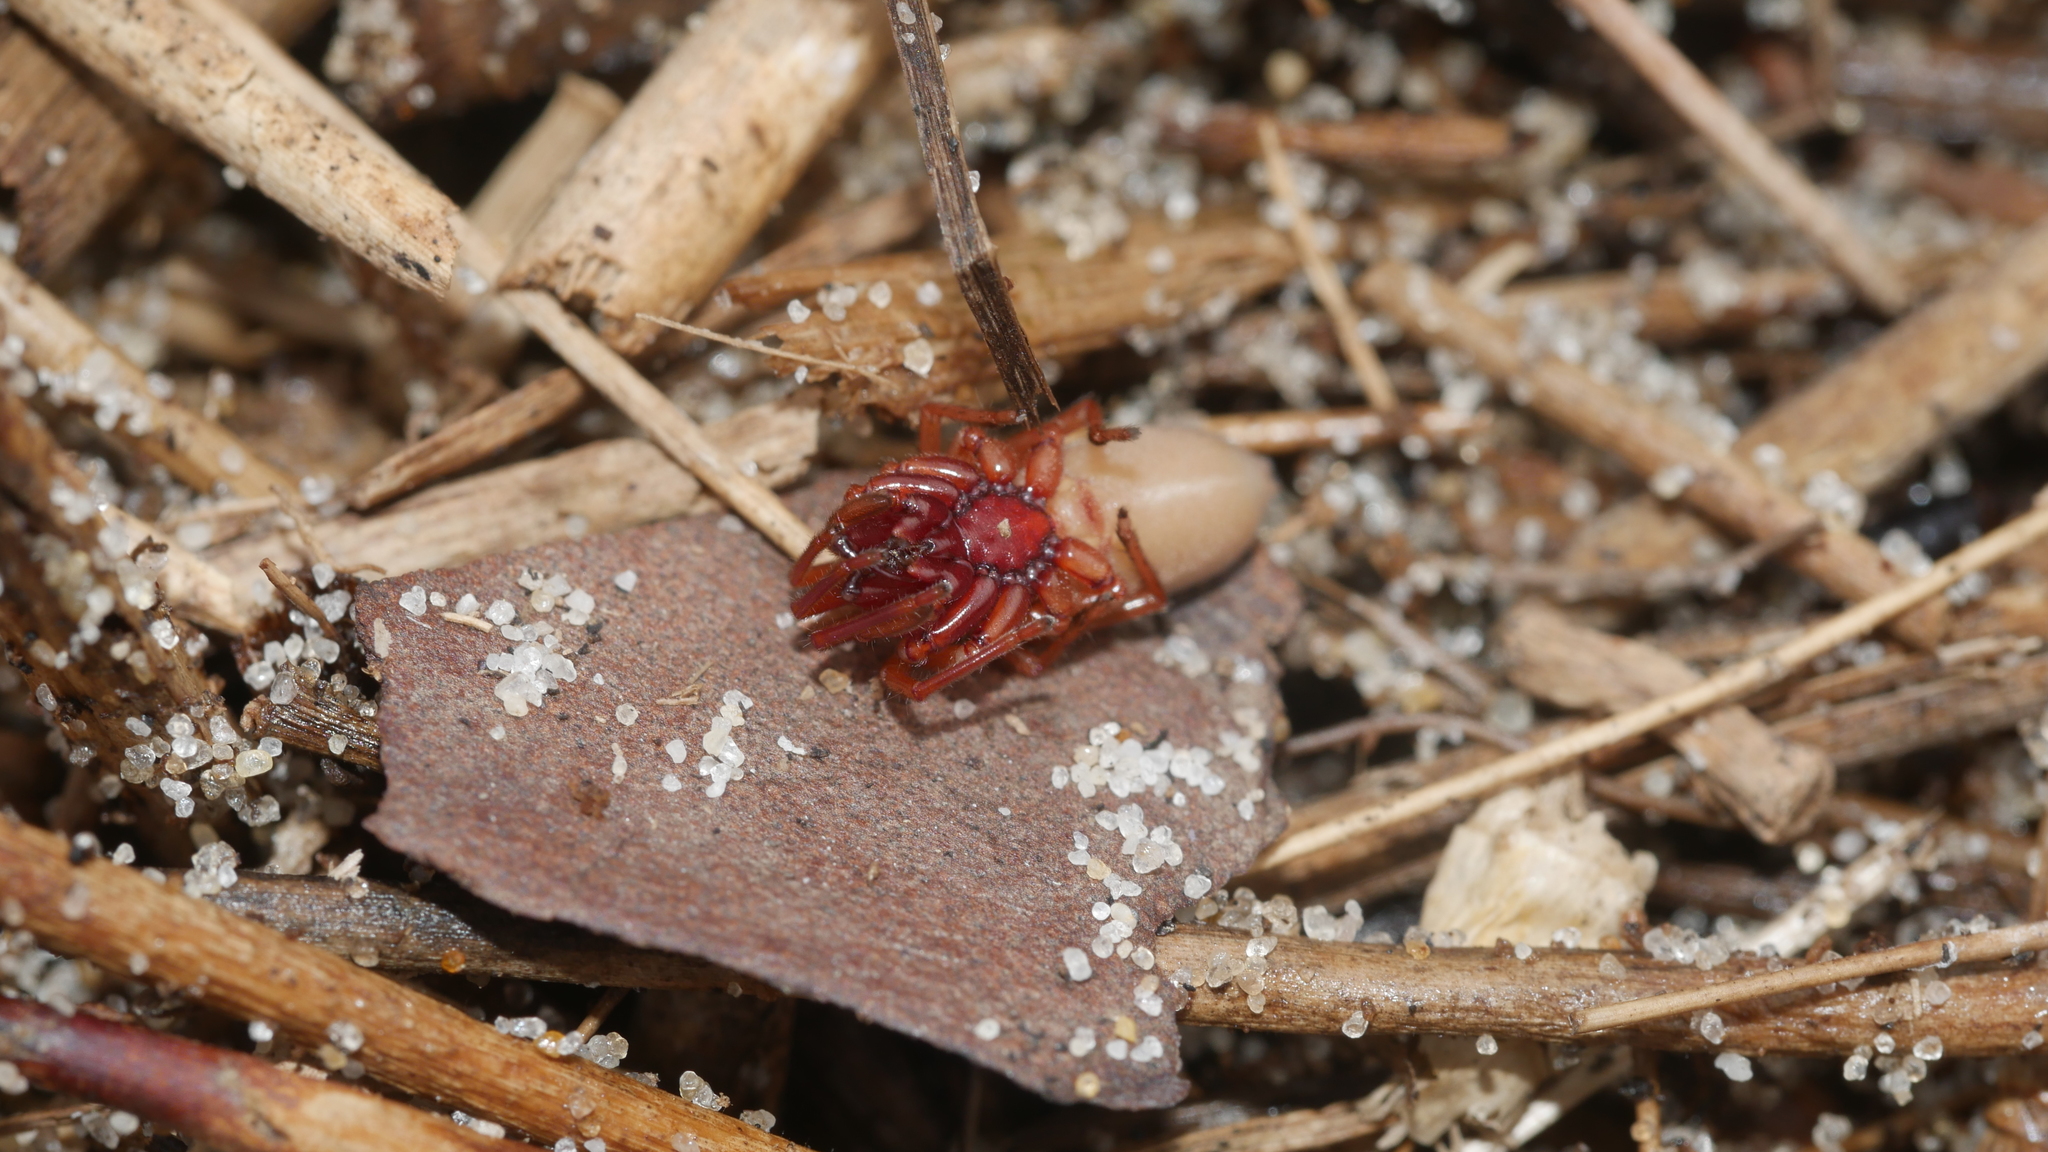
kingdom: Animalia
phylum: Arthropoda
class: Arachnida
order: Araneae
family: Dysderidae
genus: Dysdera
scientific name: Dysdera crocata
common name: Woodlouse spider
